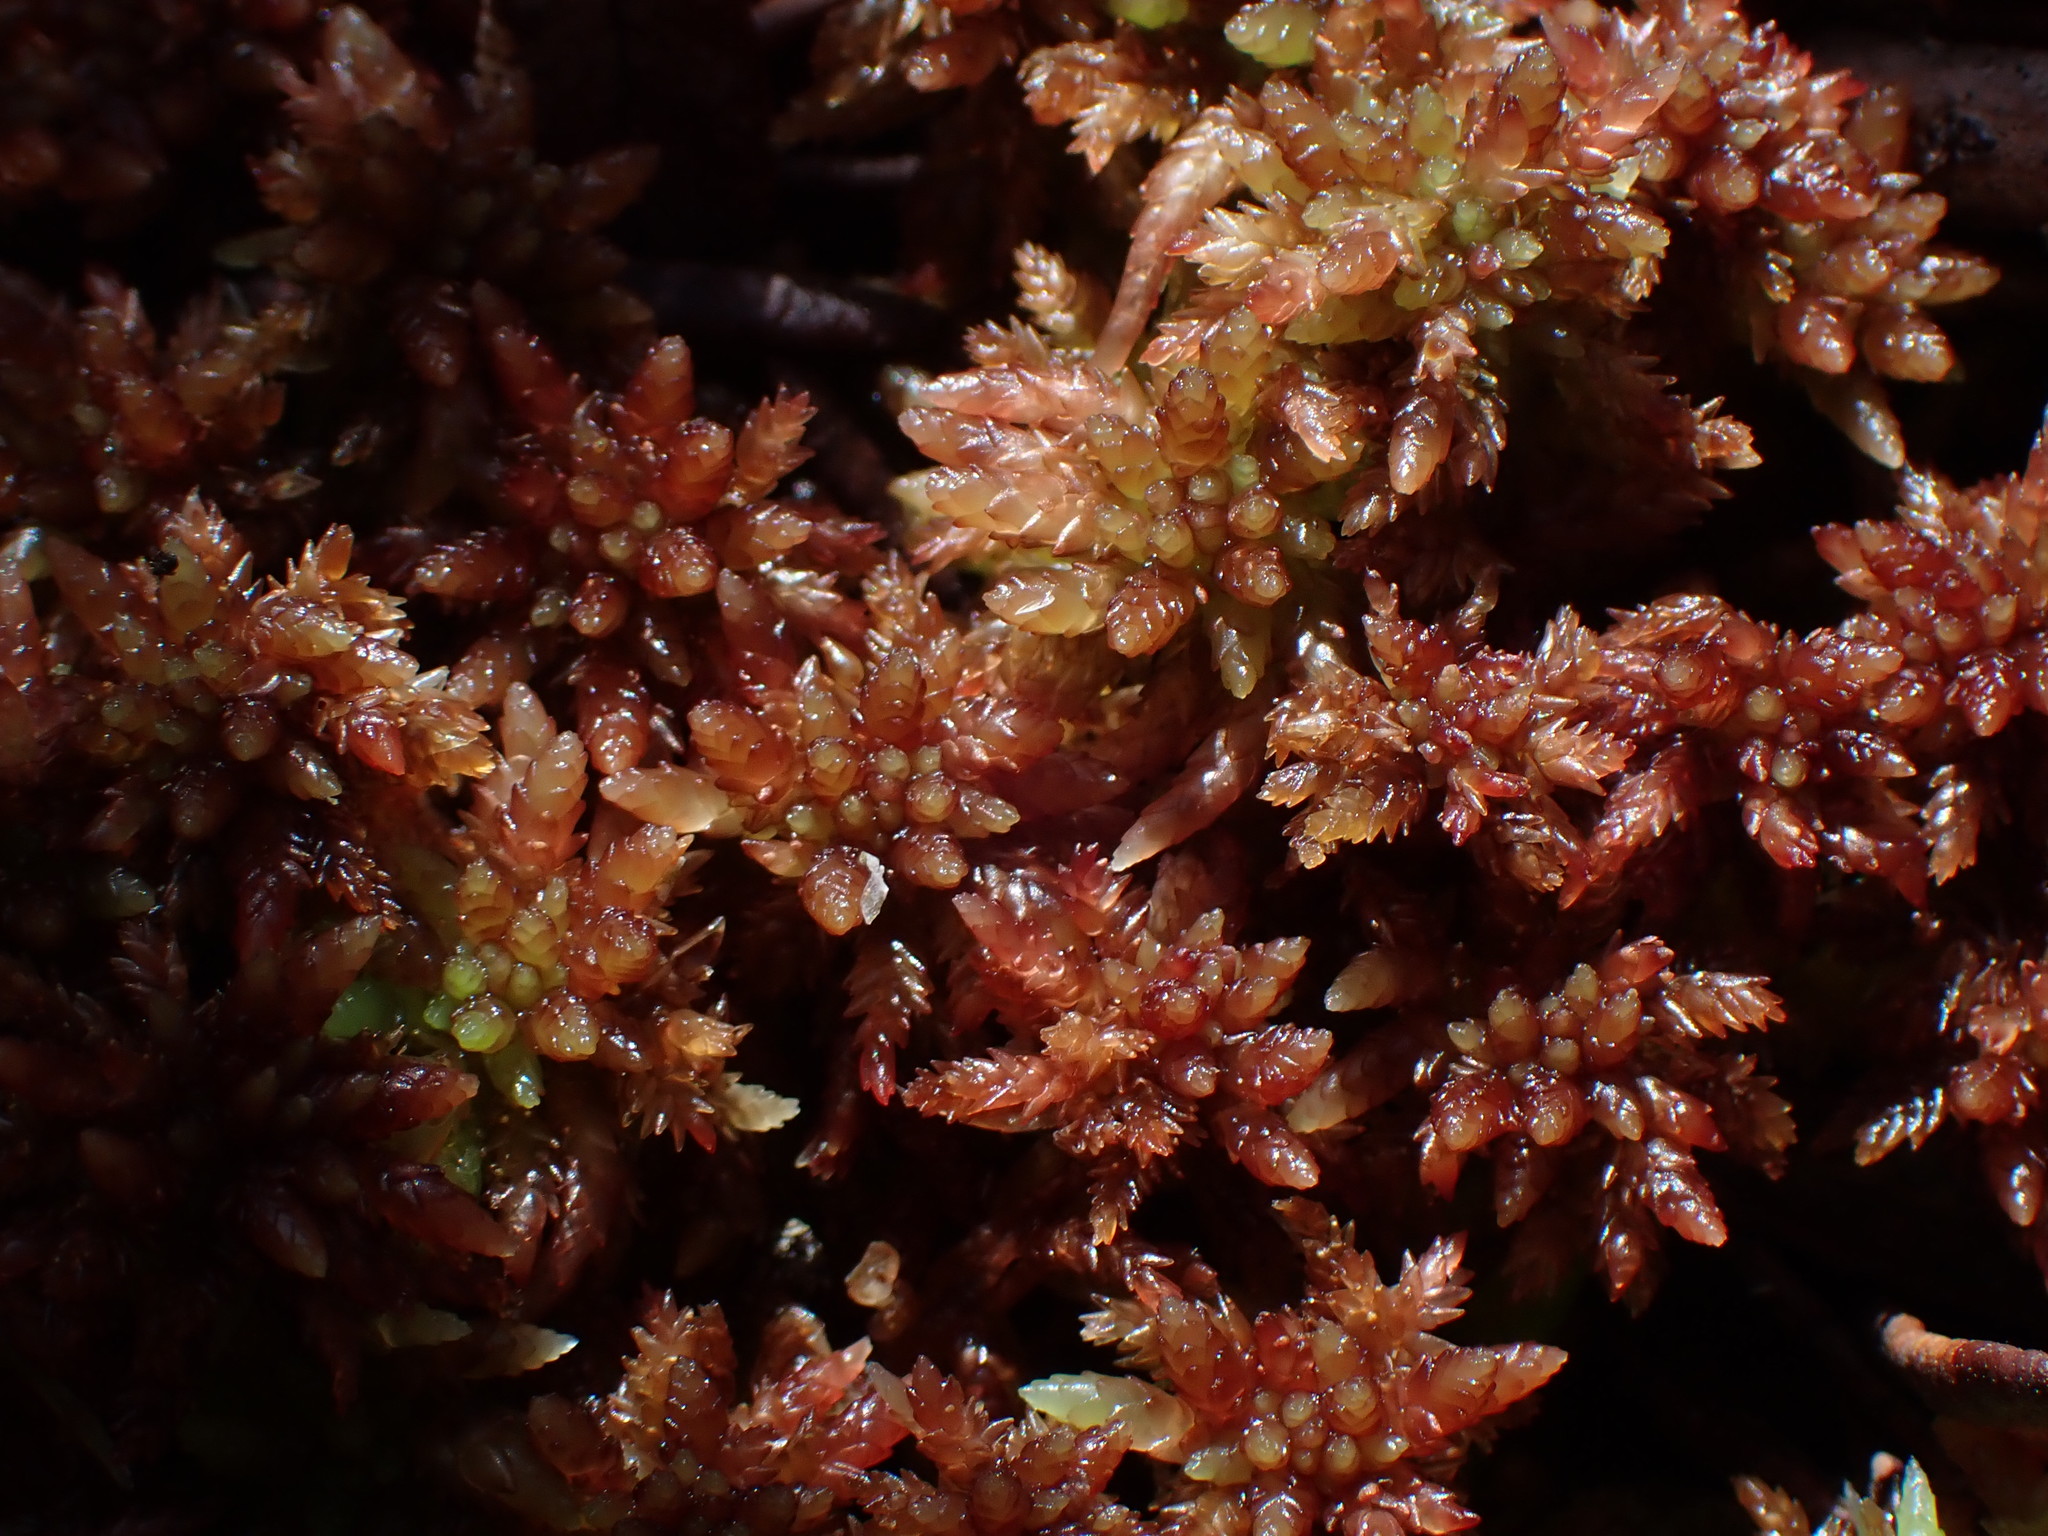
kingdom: Plantae
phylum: Bryophyta
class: Sphagnopsida
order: Sphagnales
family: Sphagnaceae
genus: Sphagnum
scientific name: Sphagnum divinum
